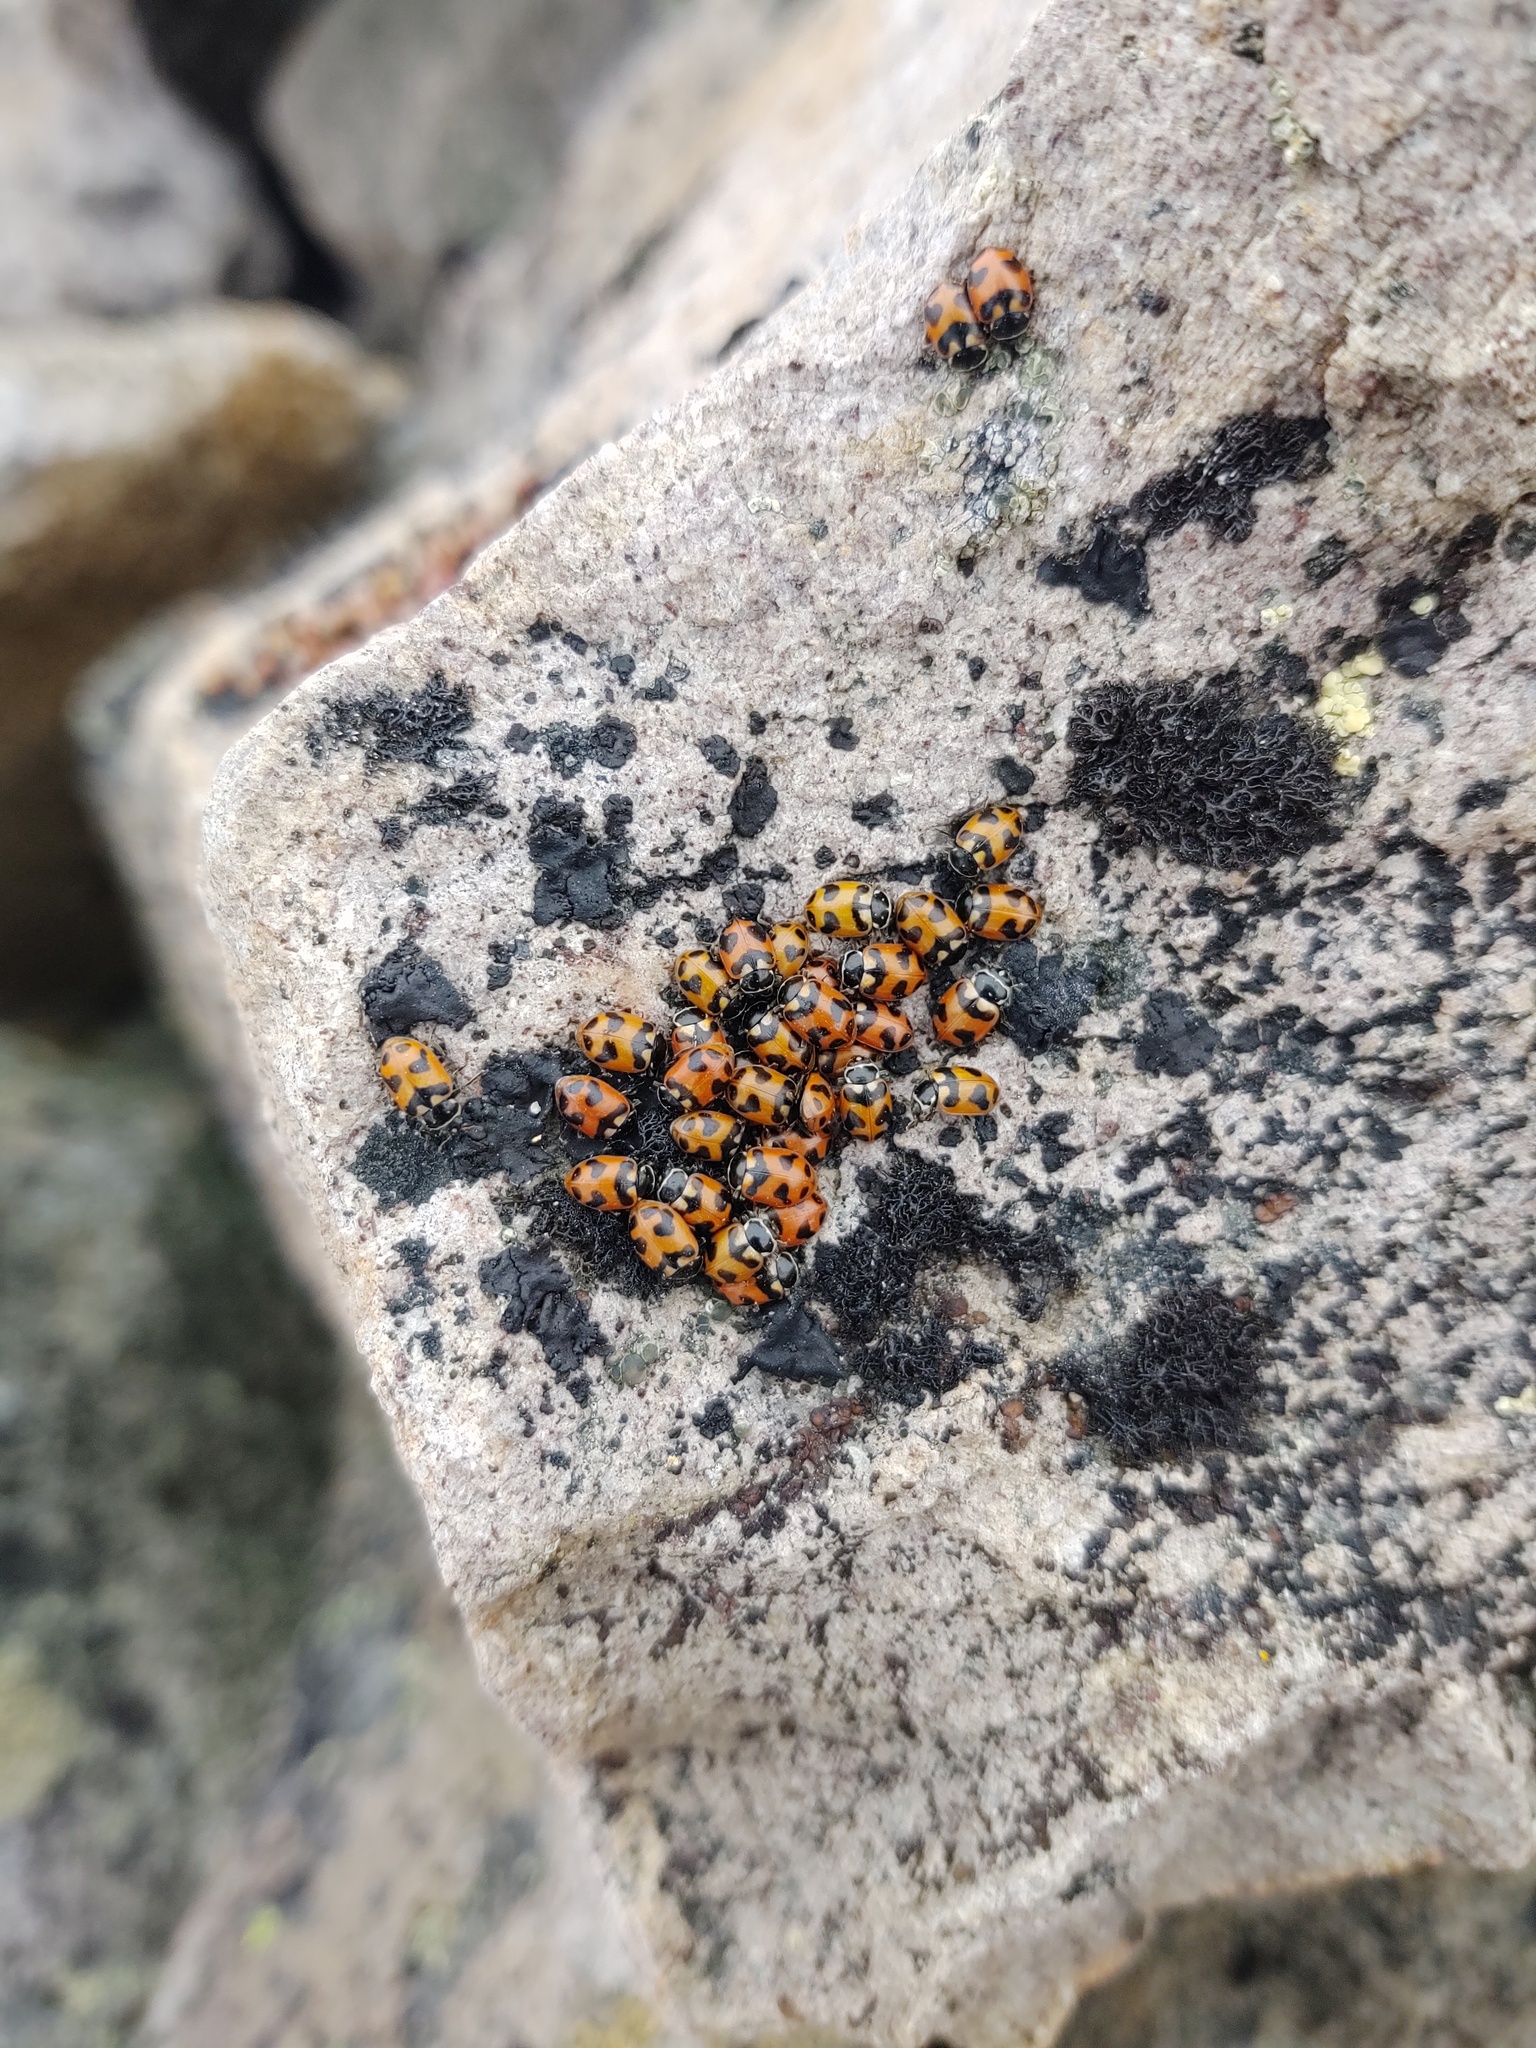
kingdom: Animalia
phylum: Arthropoda
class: Insecta
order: Coleoptera
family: Coccinellidae
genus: Hippodamia
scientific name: Hippodamia caseyi
